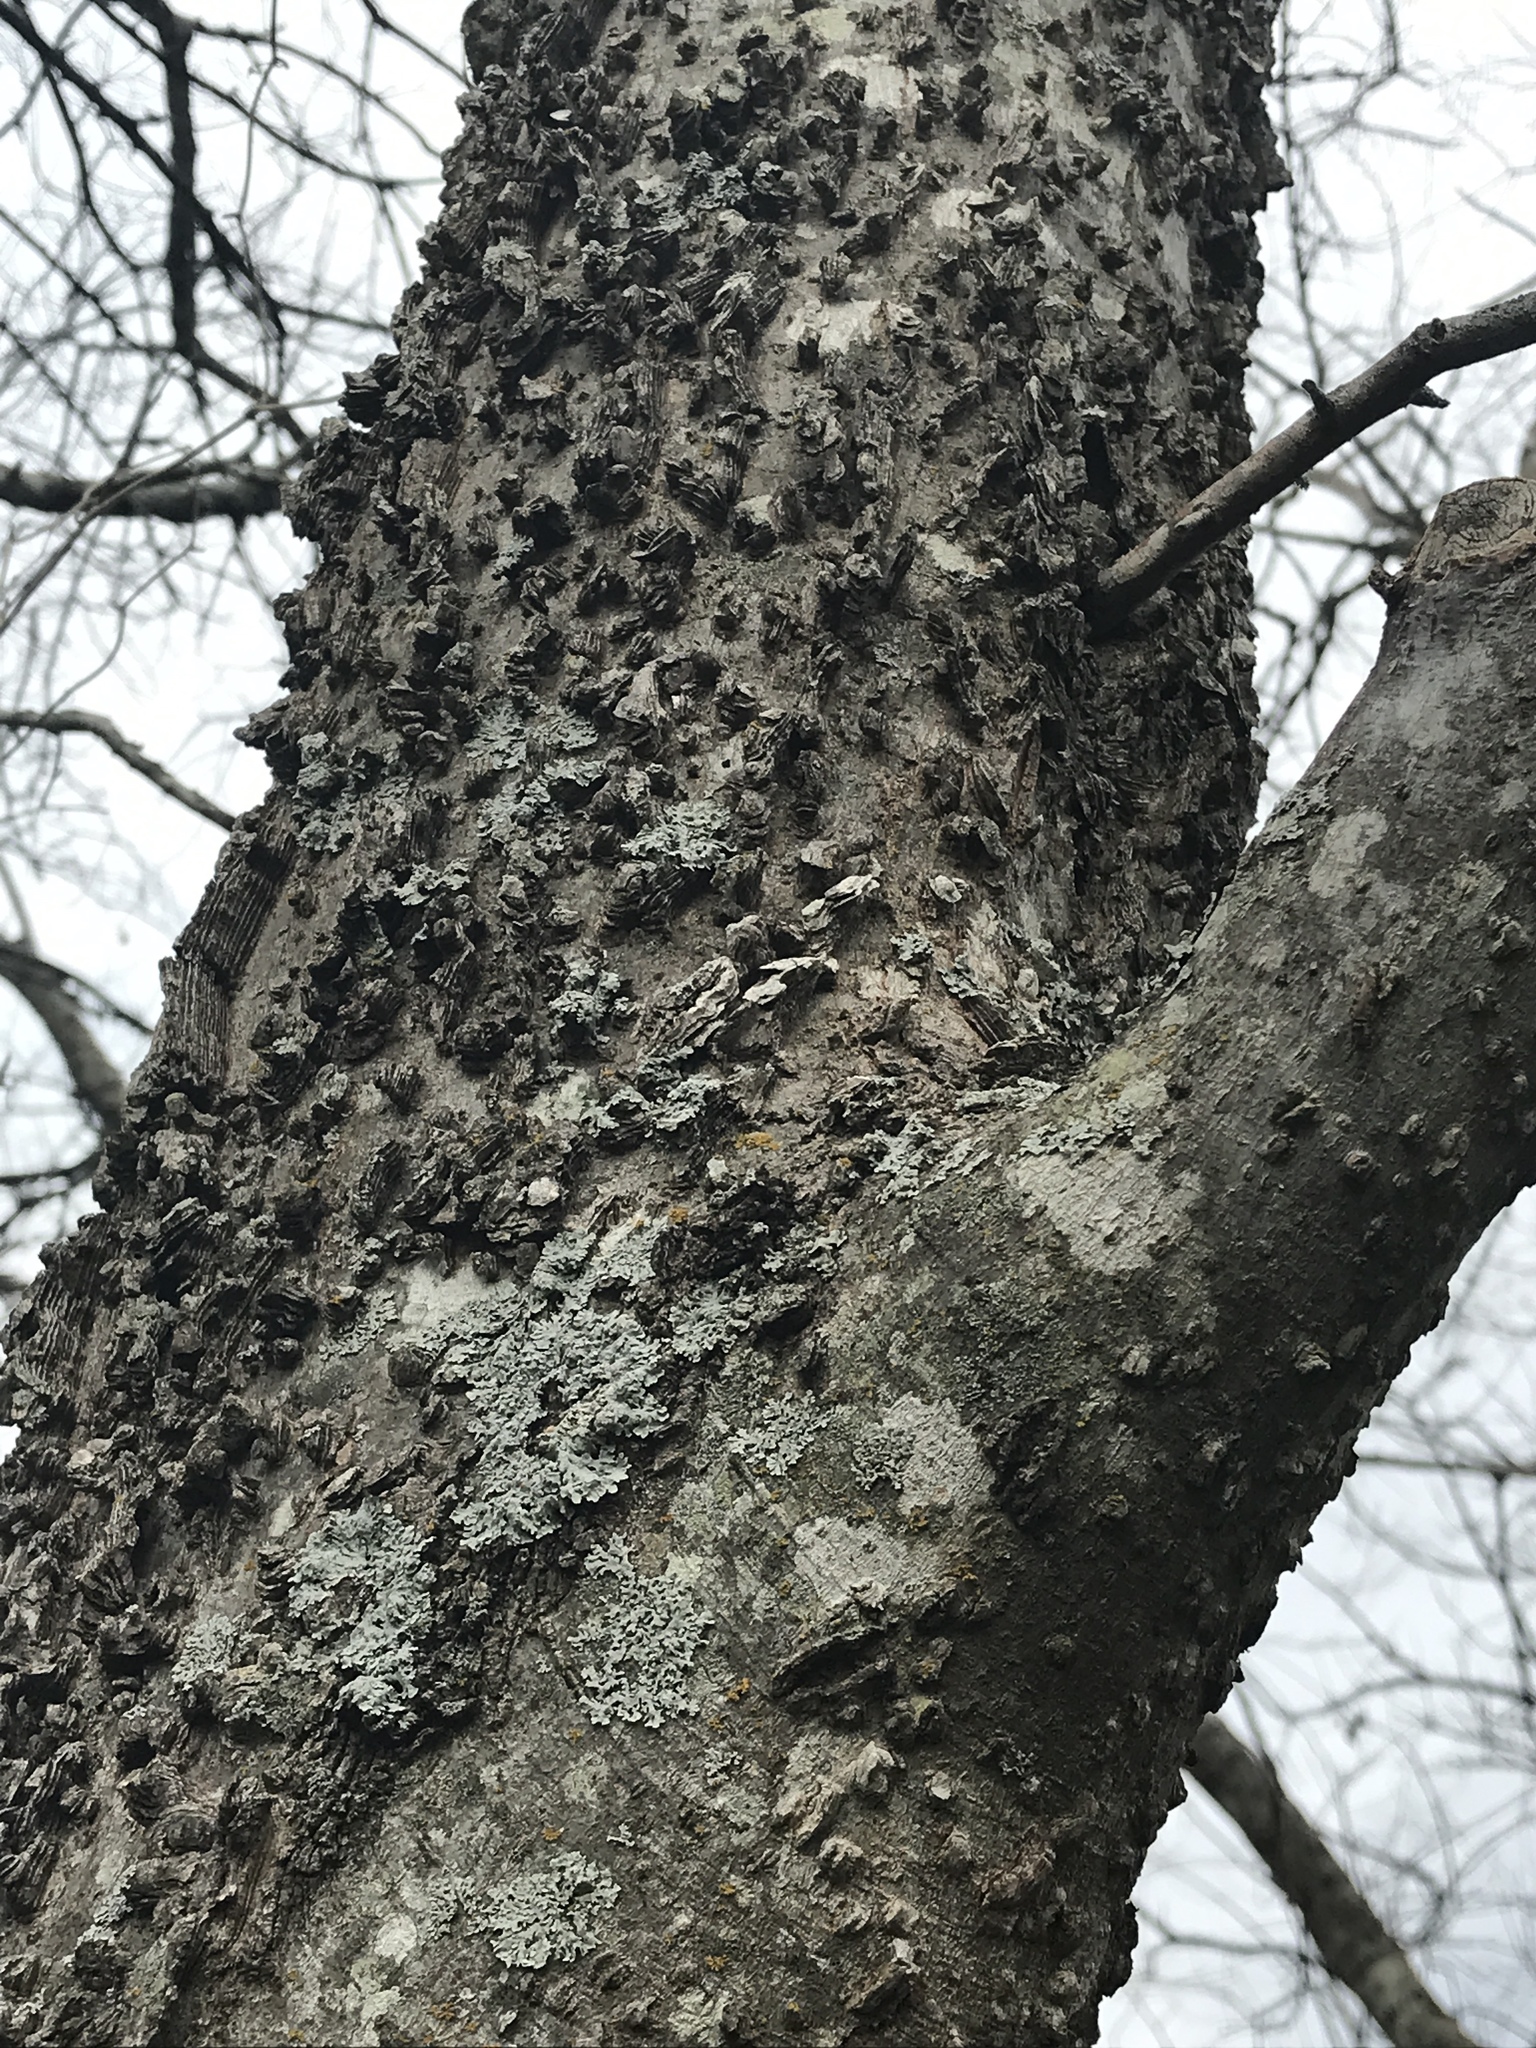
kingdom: Plantae
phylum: Tracheophyta
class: Magnoliopsida
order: Rosales
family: Cannabaceae
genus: Celtis
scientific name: Celtis laevigata
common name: Sugarberry
